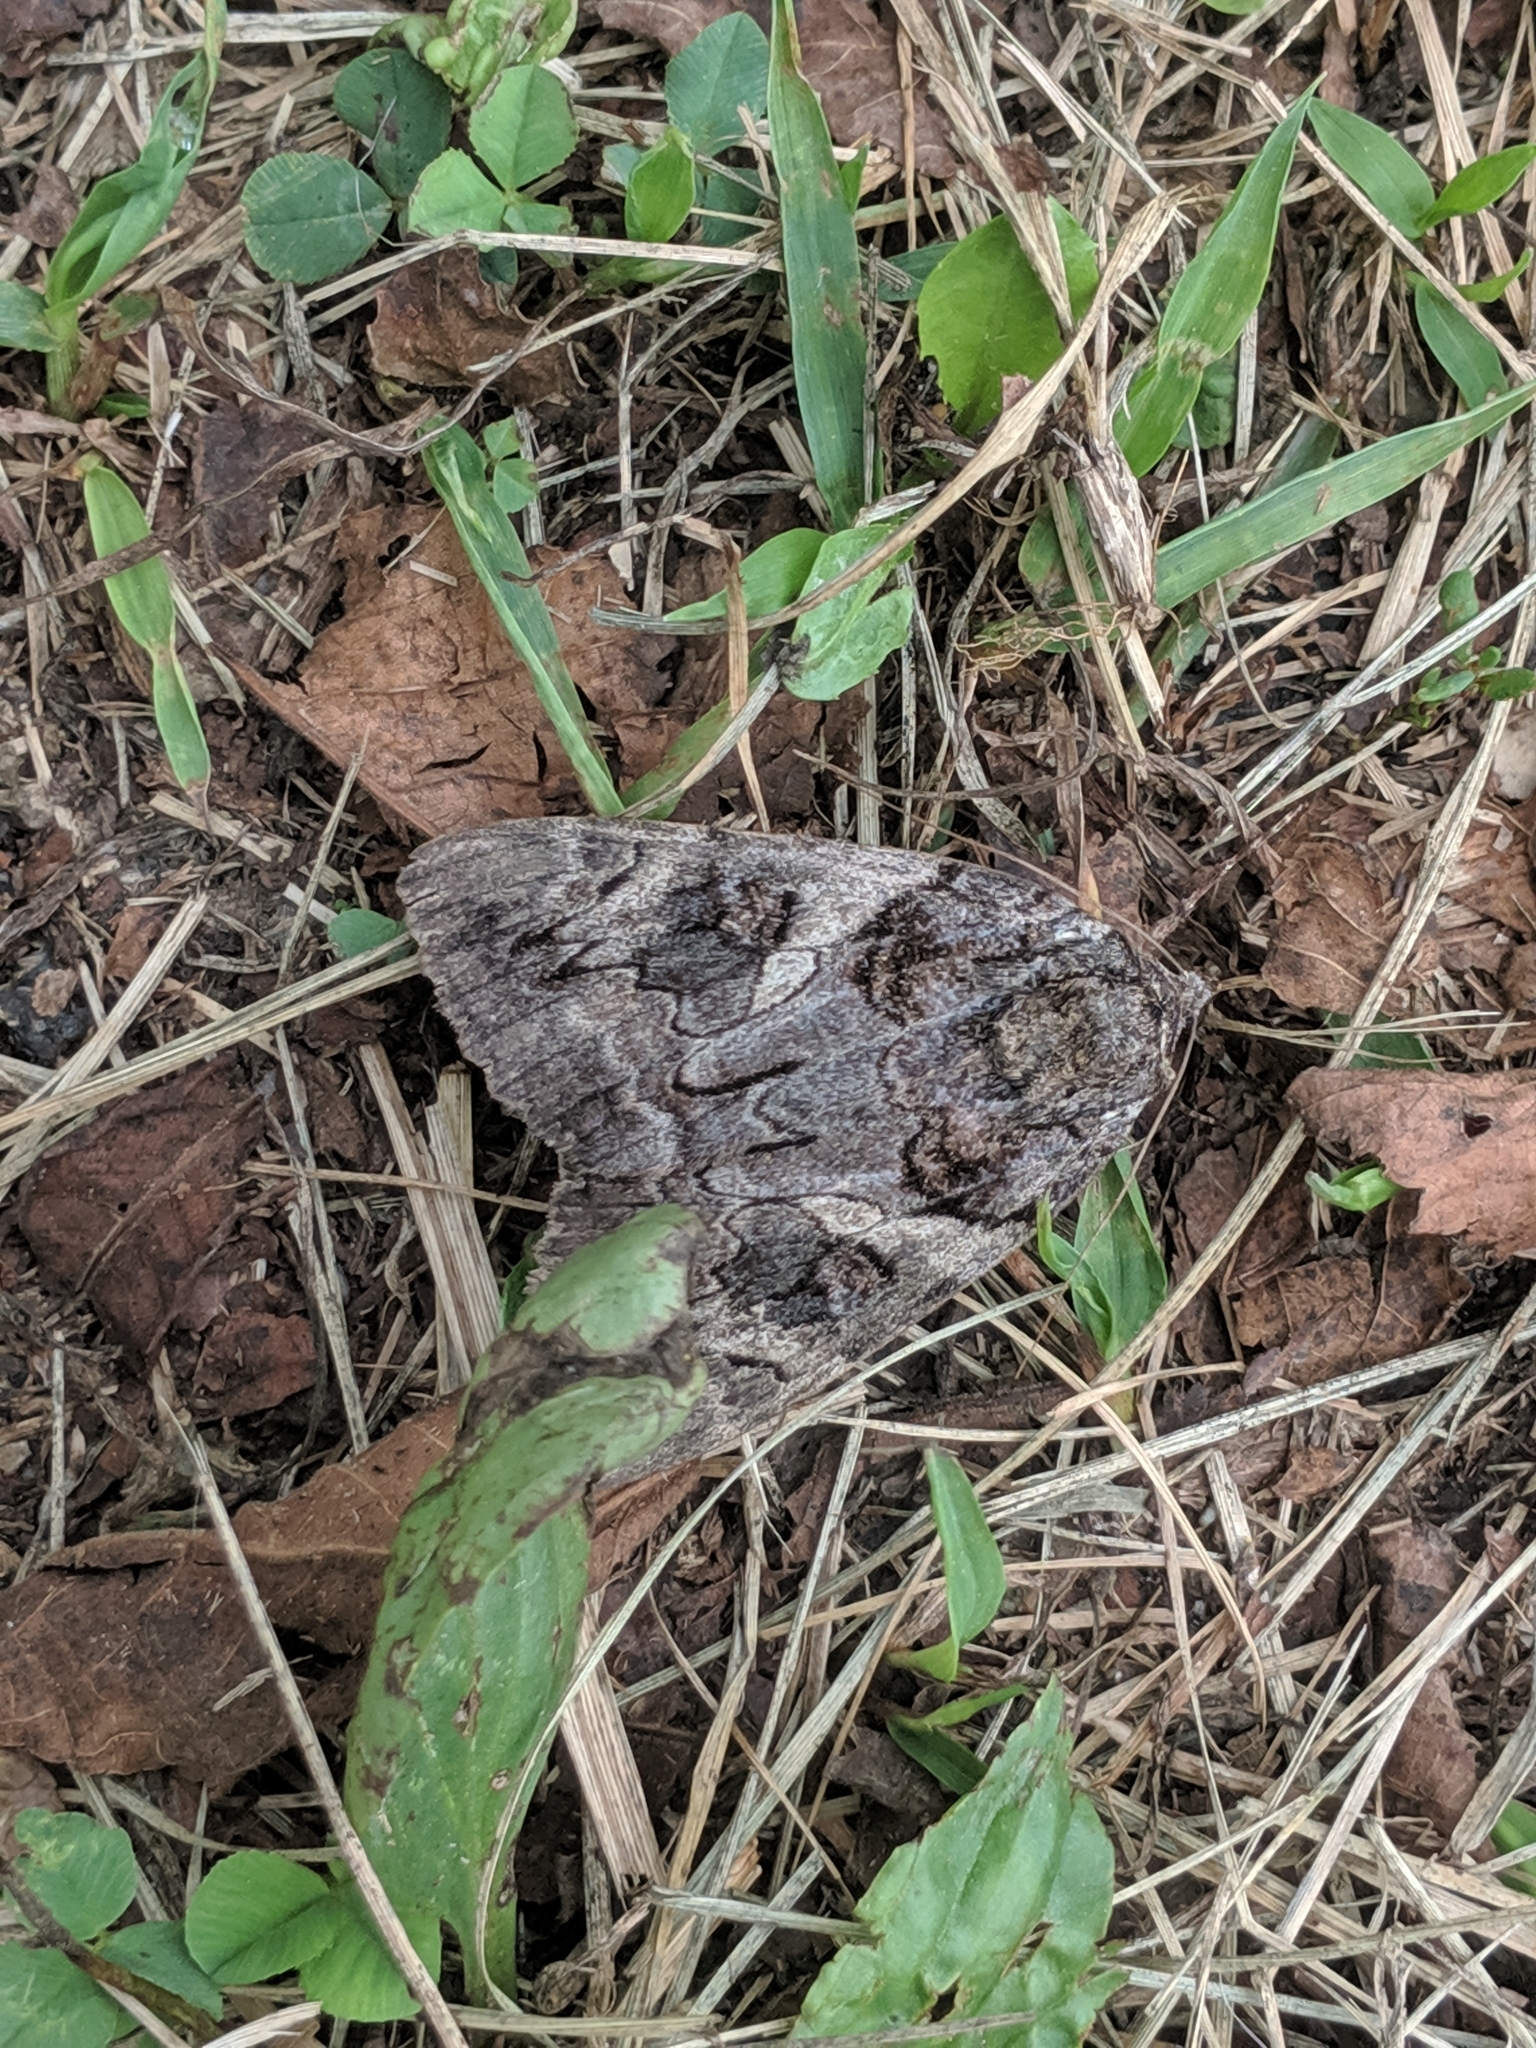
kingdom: Animalia
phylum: Arthropoda
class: Insecta
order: Lepidoptera
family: Erebidae
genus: Catocala
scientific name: Catocala piatrix
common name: The penitent underwing
